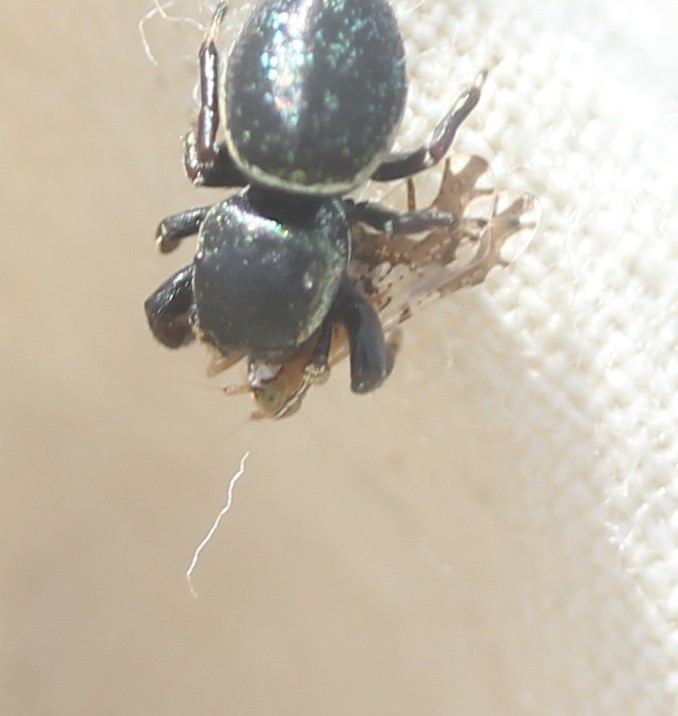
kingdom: Animalia
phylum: Arthropoda
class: Insecta
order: Hemiptera
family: Delphacidae
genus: Liburniella
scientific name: Liburniella ornata
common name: Ornate planthopper
